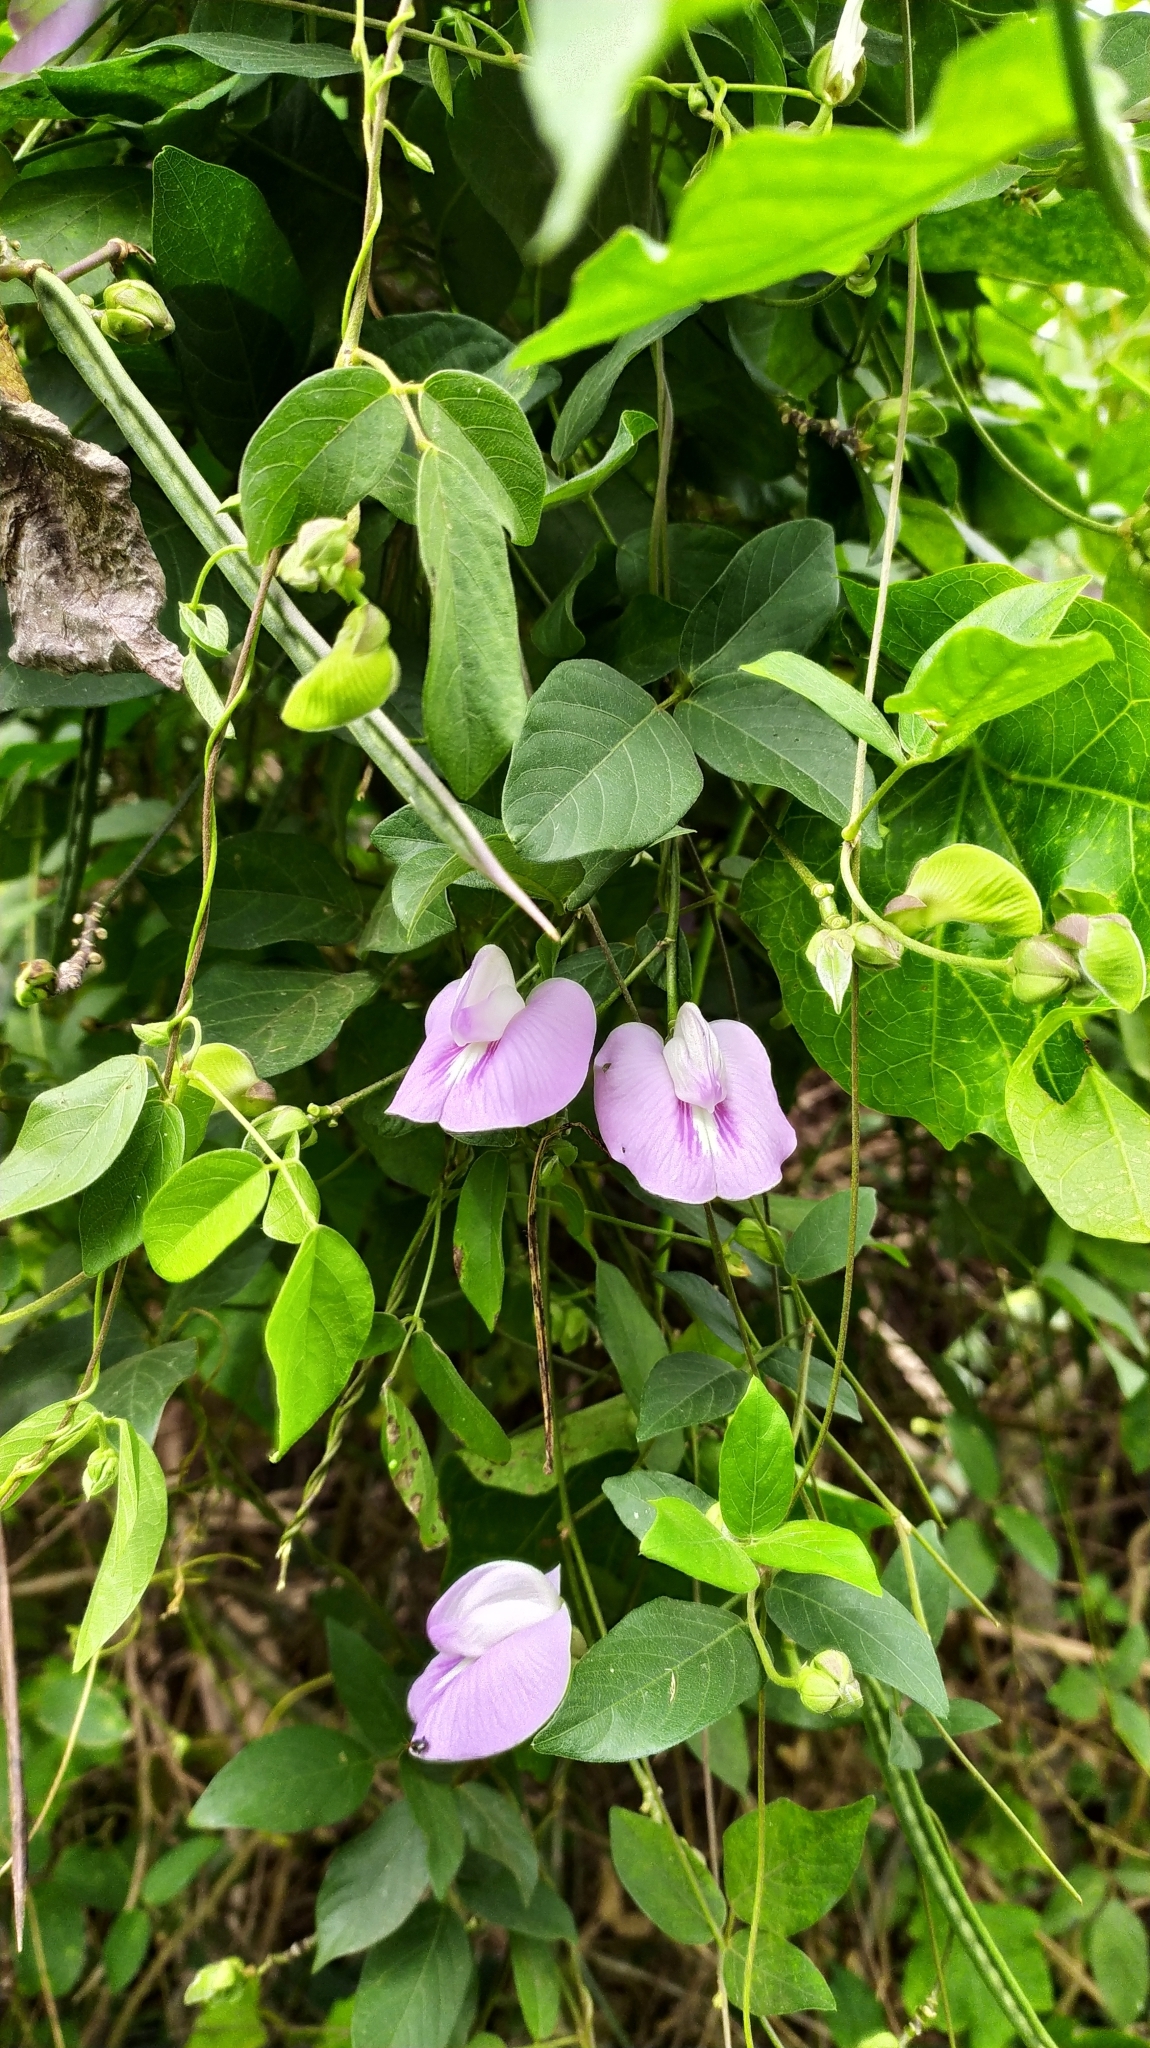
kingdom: Plantae
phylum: Tracheophyta
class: Magnoliopsida
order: Fabales
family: Fabaceae
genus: Centrosema
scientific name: Centrosema pubescens
